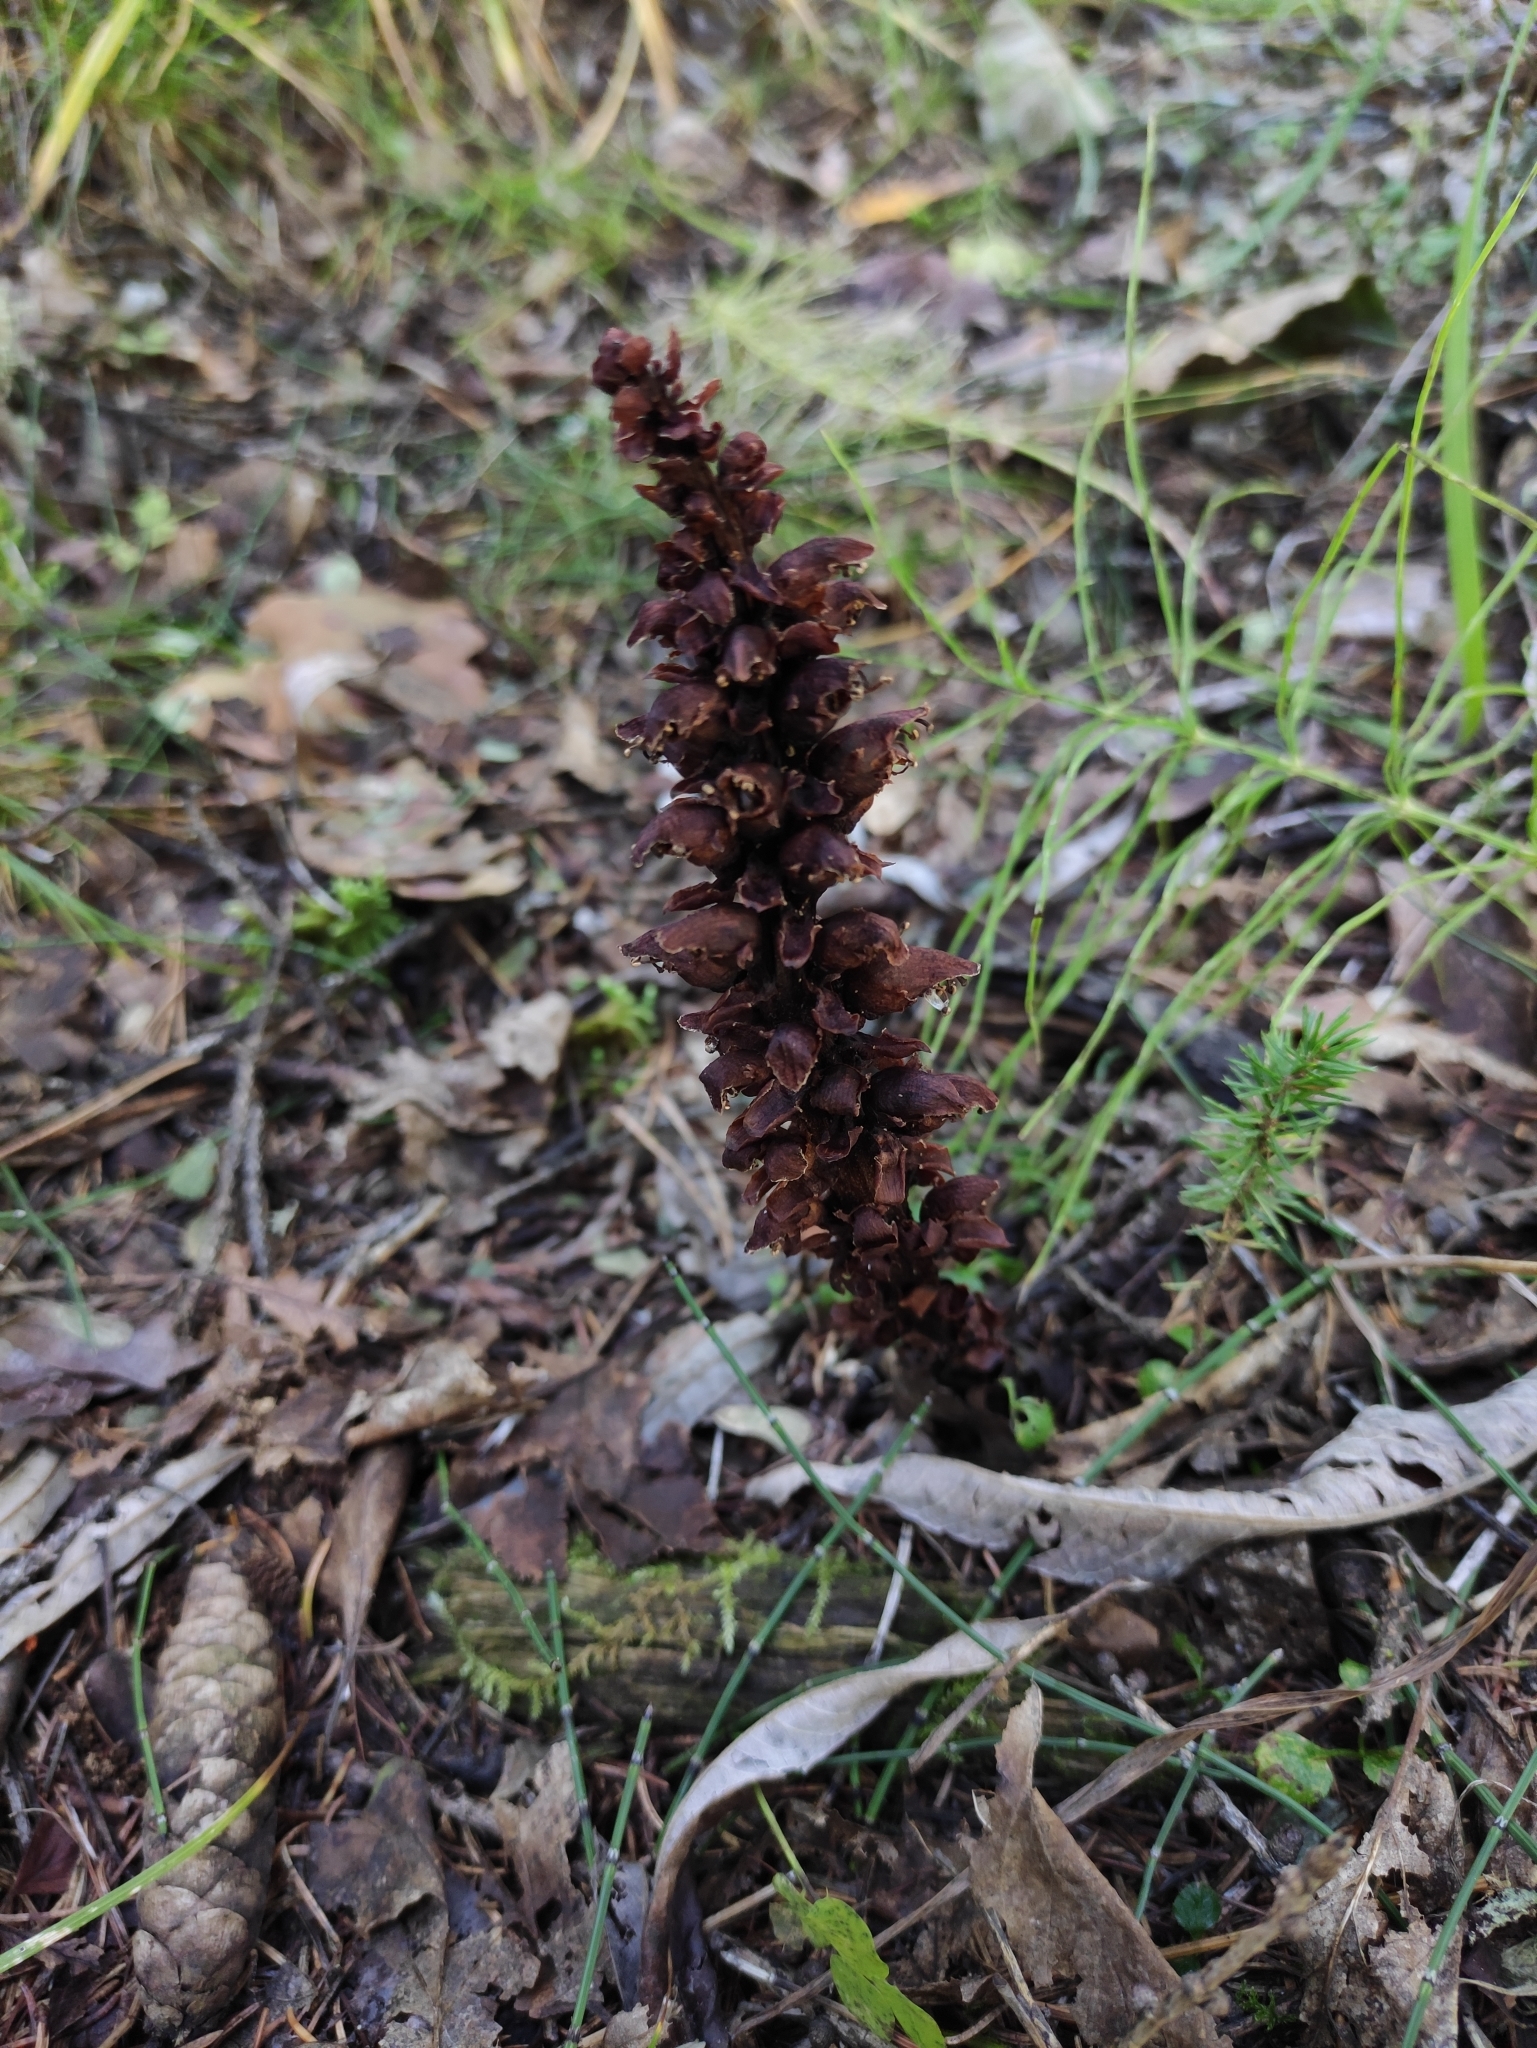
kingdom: Plantae
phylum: Tracheophyta
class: Magnoliopsida
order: Lamiales
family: Orobanchaceae
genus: Boschniakia
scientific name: Boschniakia rossica
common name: Poque
